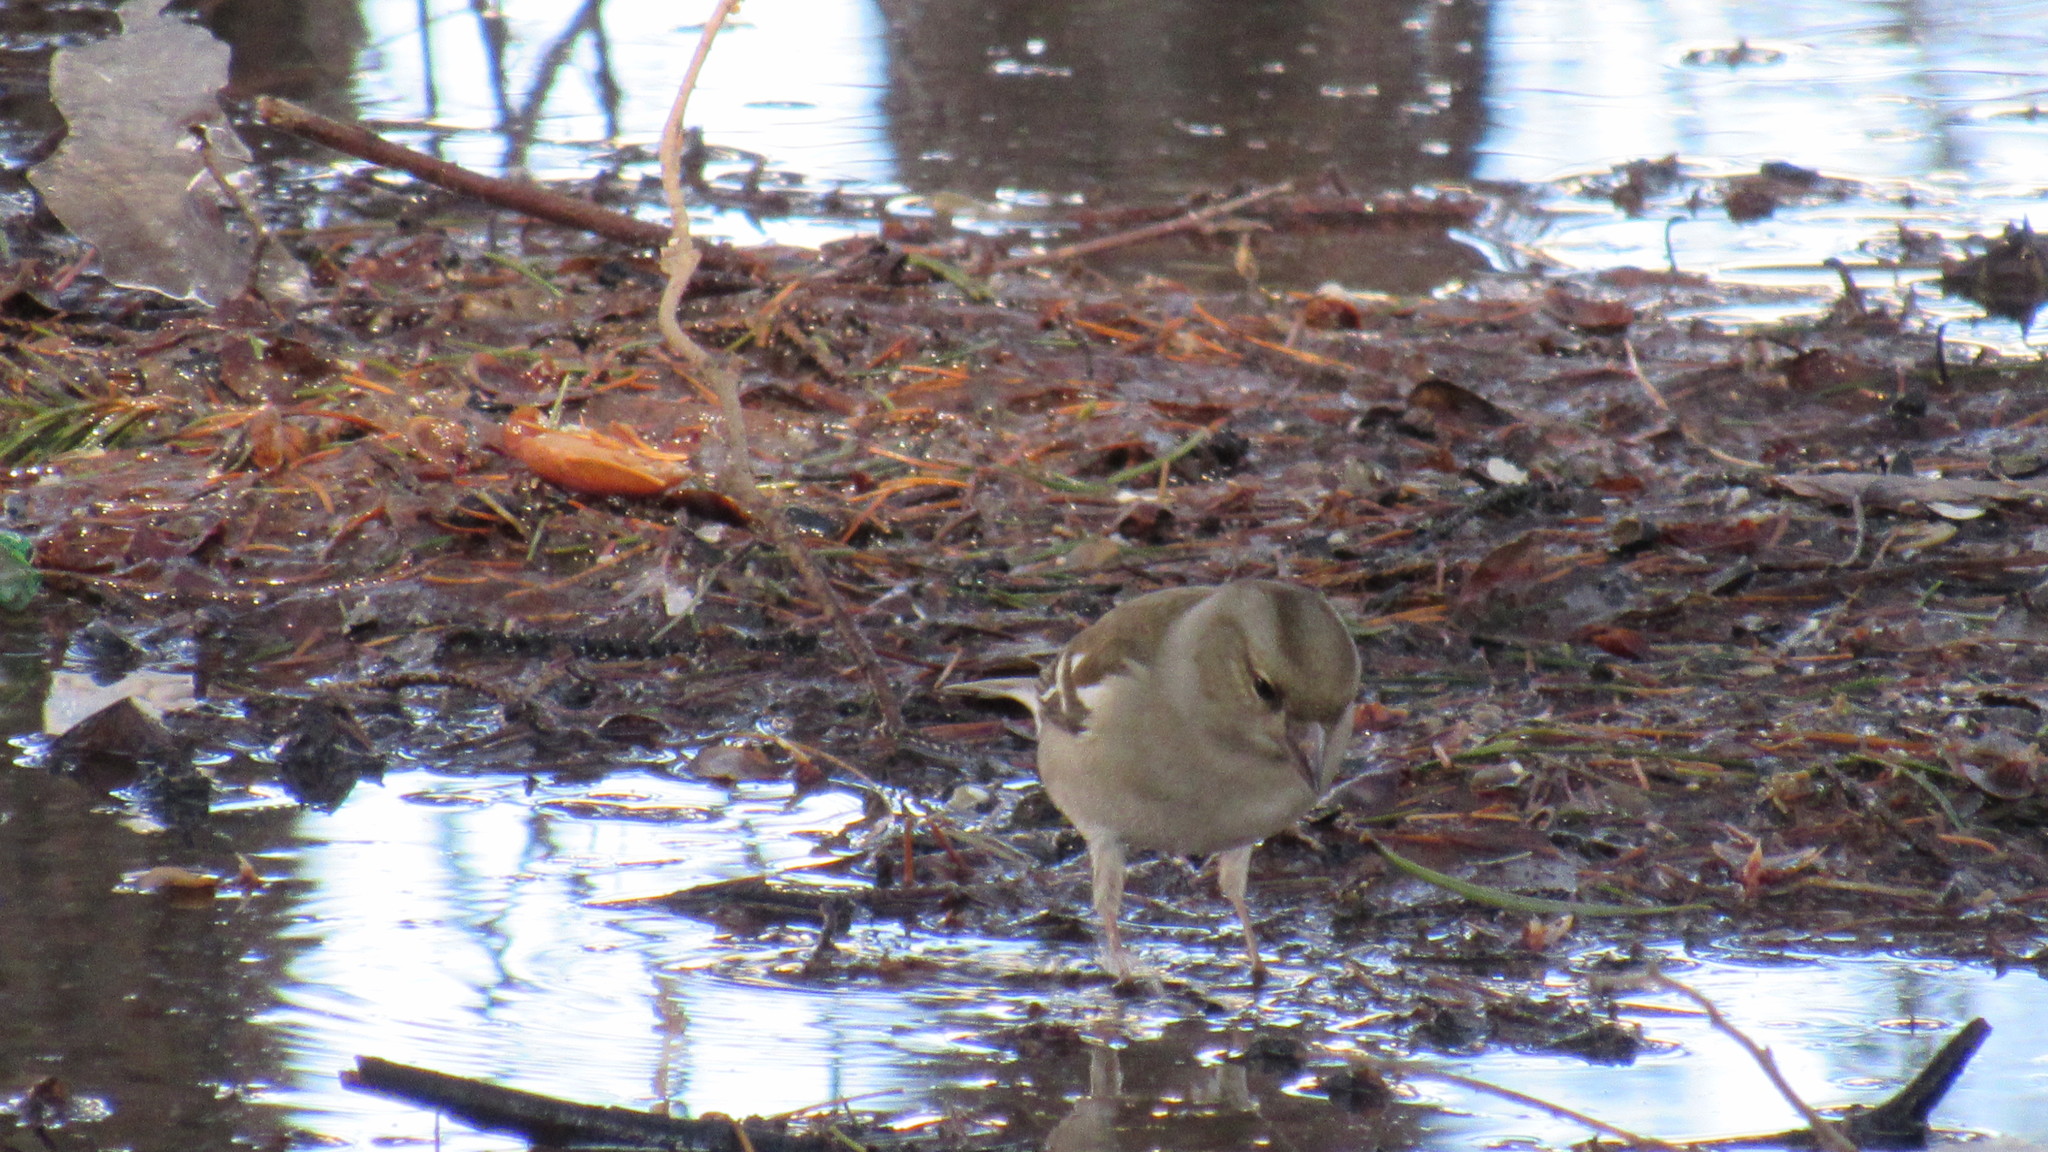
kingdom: Animalia
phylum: Chordata
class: Aves
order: Passeriformes
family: Fringillidae
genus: Fringilla
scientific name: Fringilla coelebs
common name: Common chaffinch
